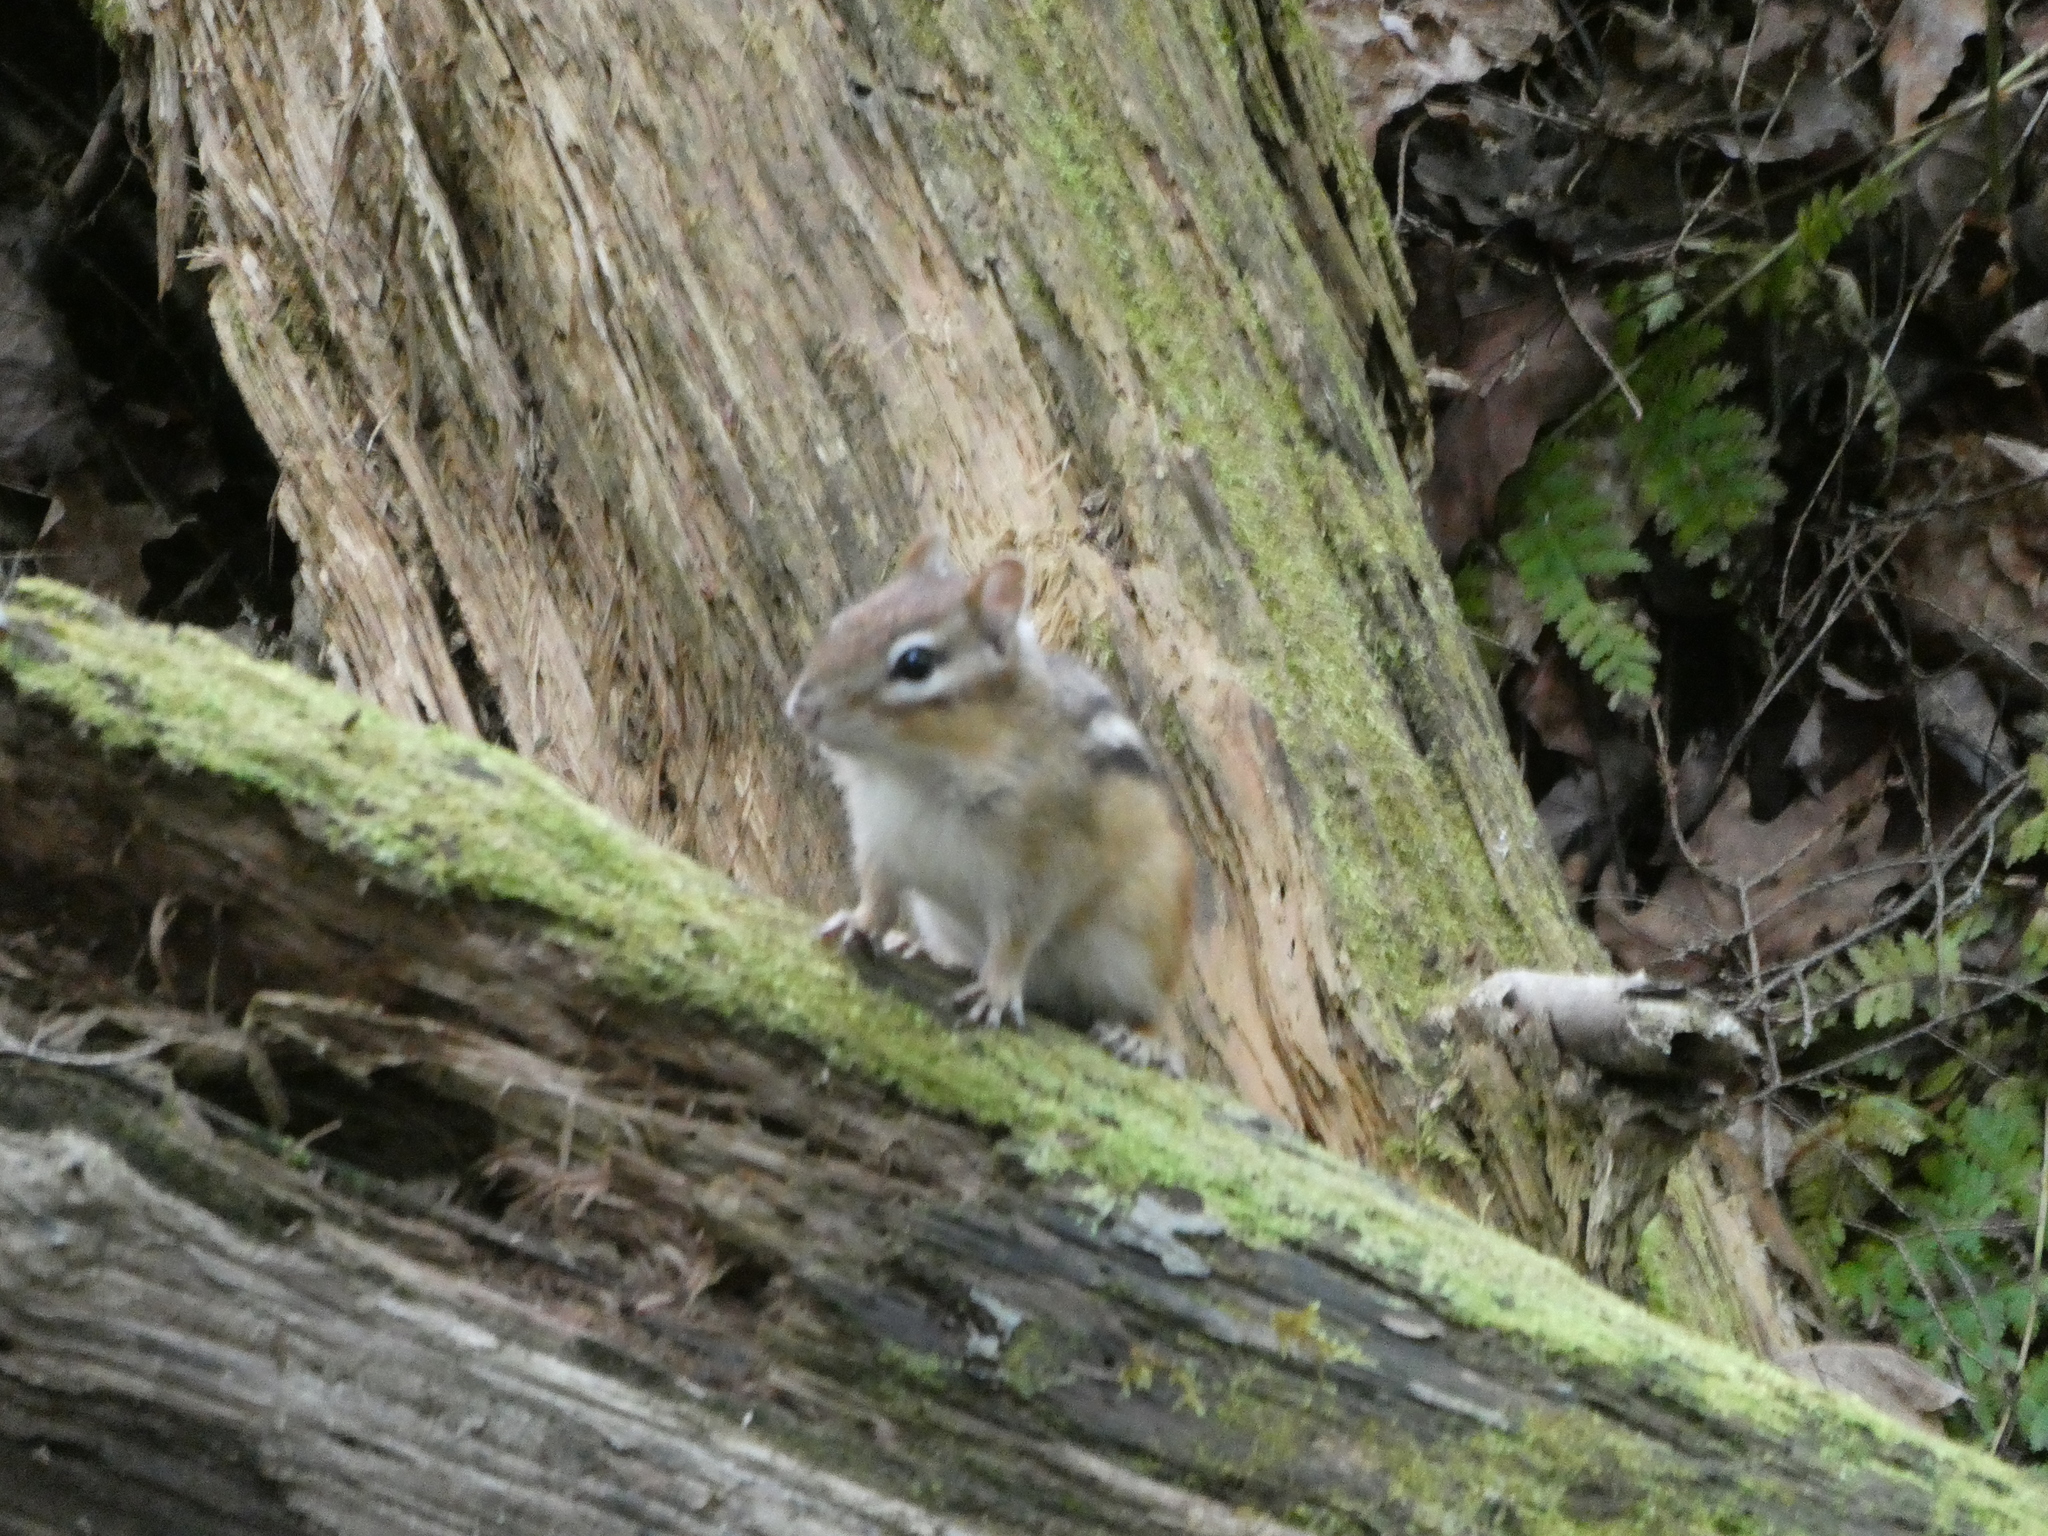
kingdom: Animalia
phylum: Chordata
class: Mammalia
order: Rodentia
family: Sciuridae
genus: Tamias
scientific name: Tamias striatus
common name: Eastern chipmunk
